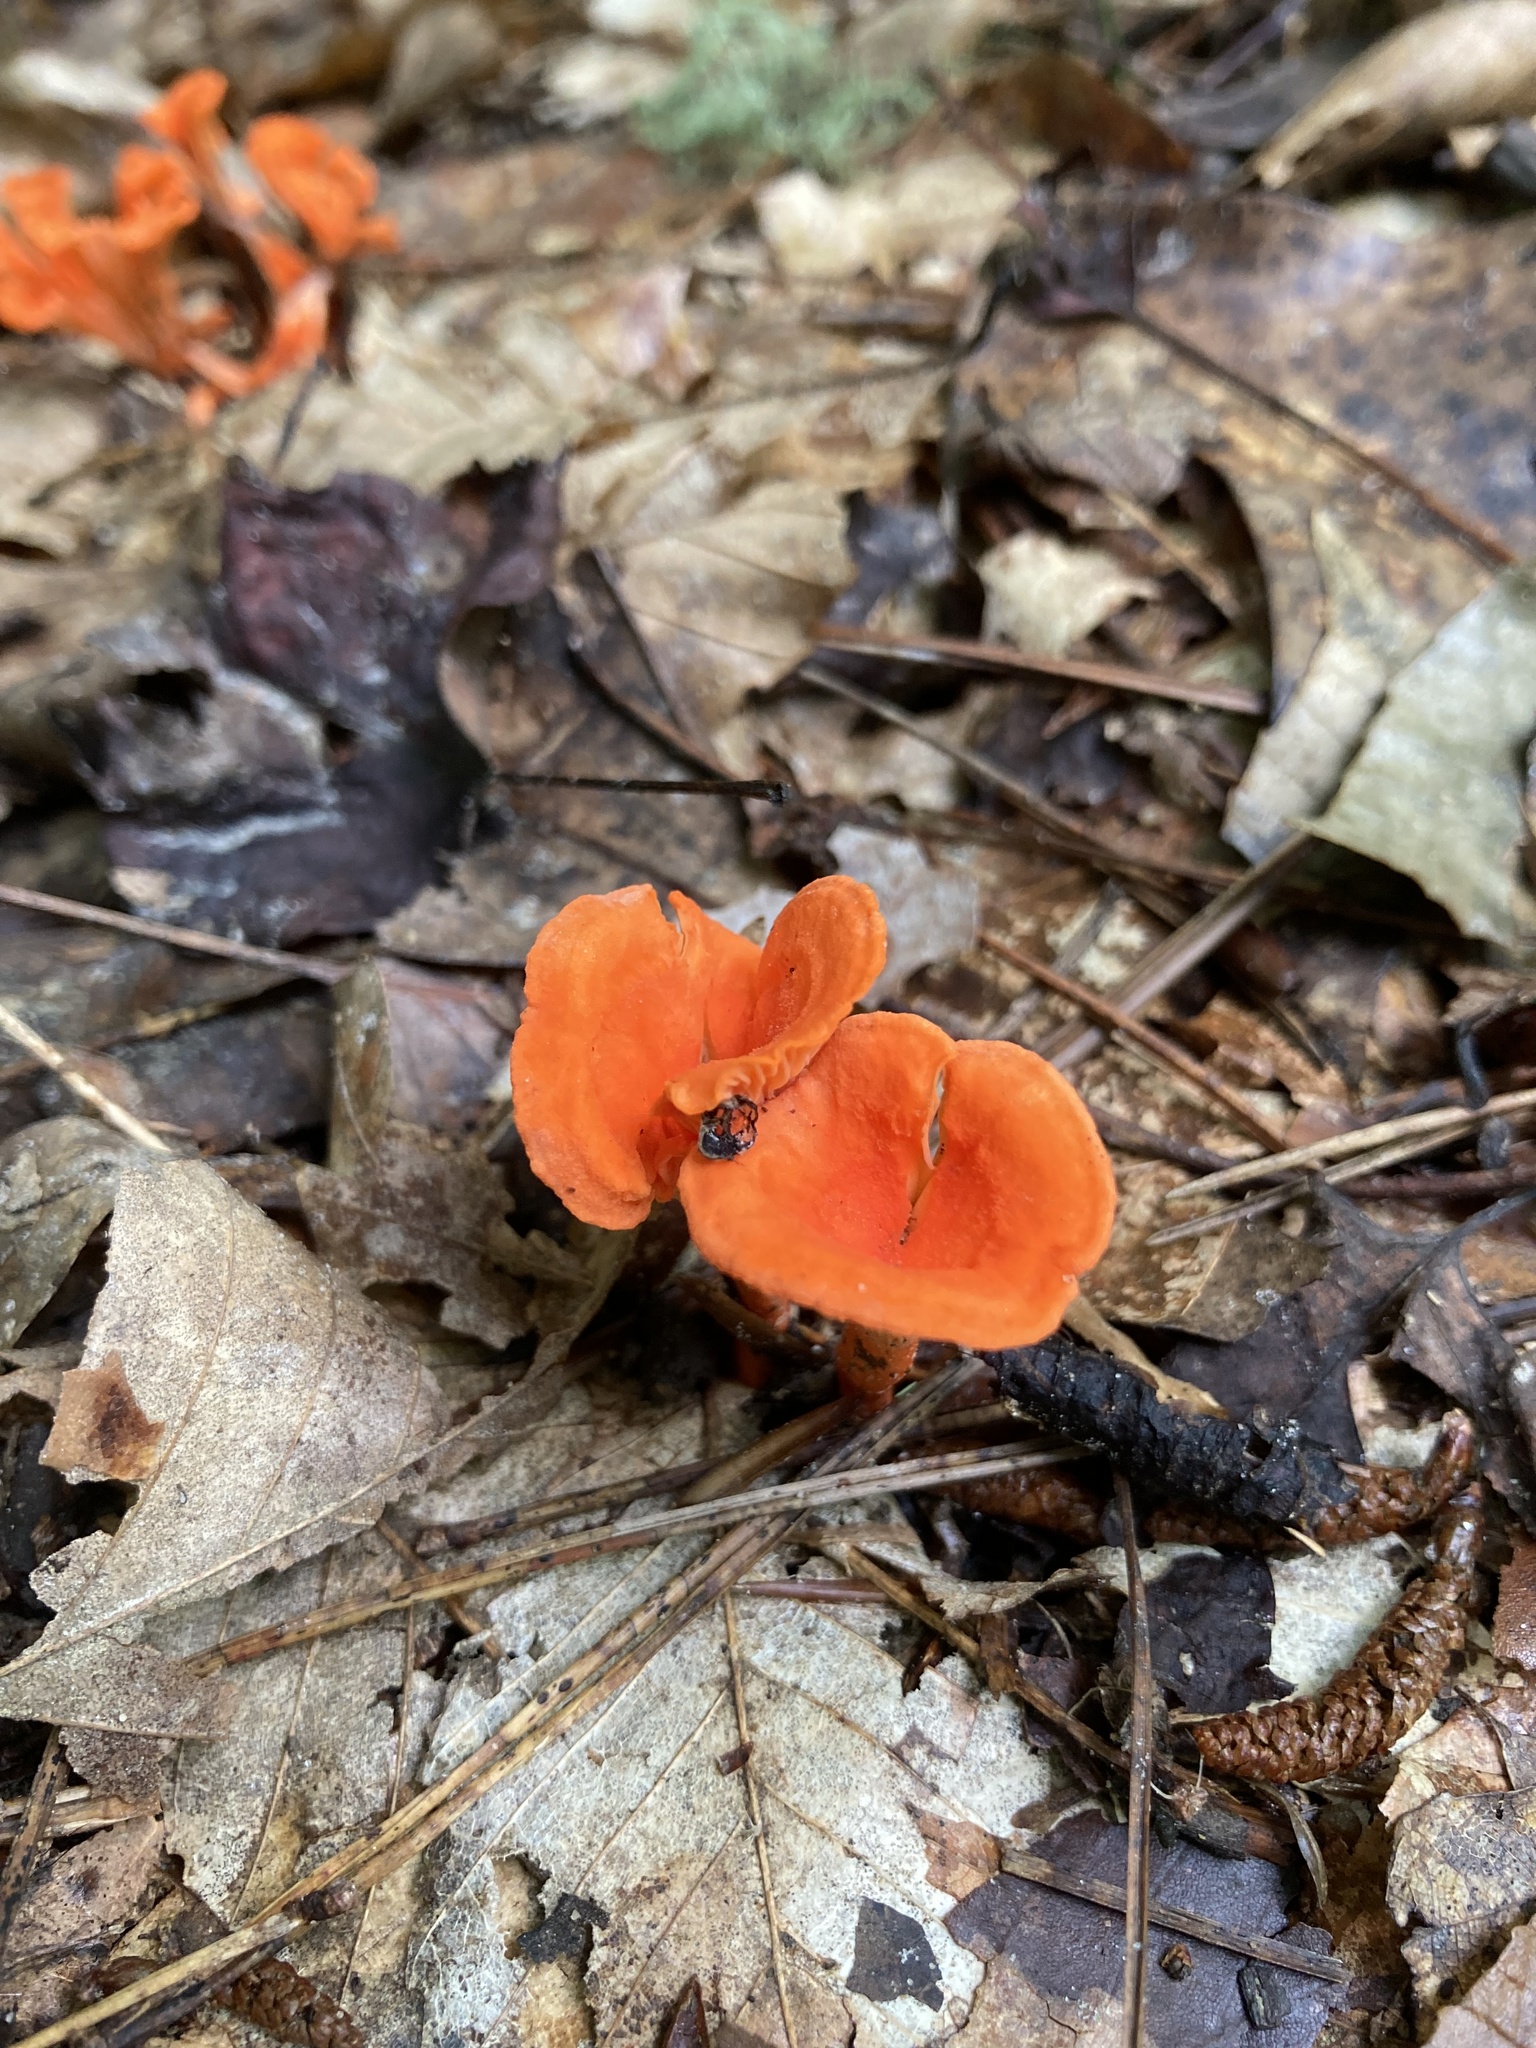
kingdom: Fungi
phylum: Basidiomycota
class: Agaricomycetes
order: Cantharellales
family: Hydnaceae
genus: Cantharellus
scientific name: Cantharellus cinnabarinus
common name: Cinnabar chanterelle
